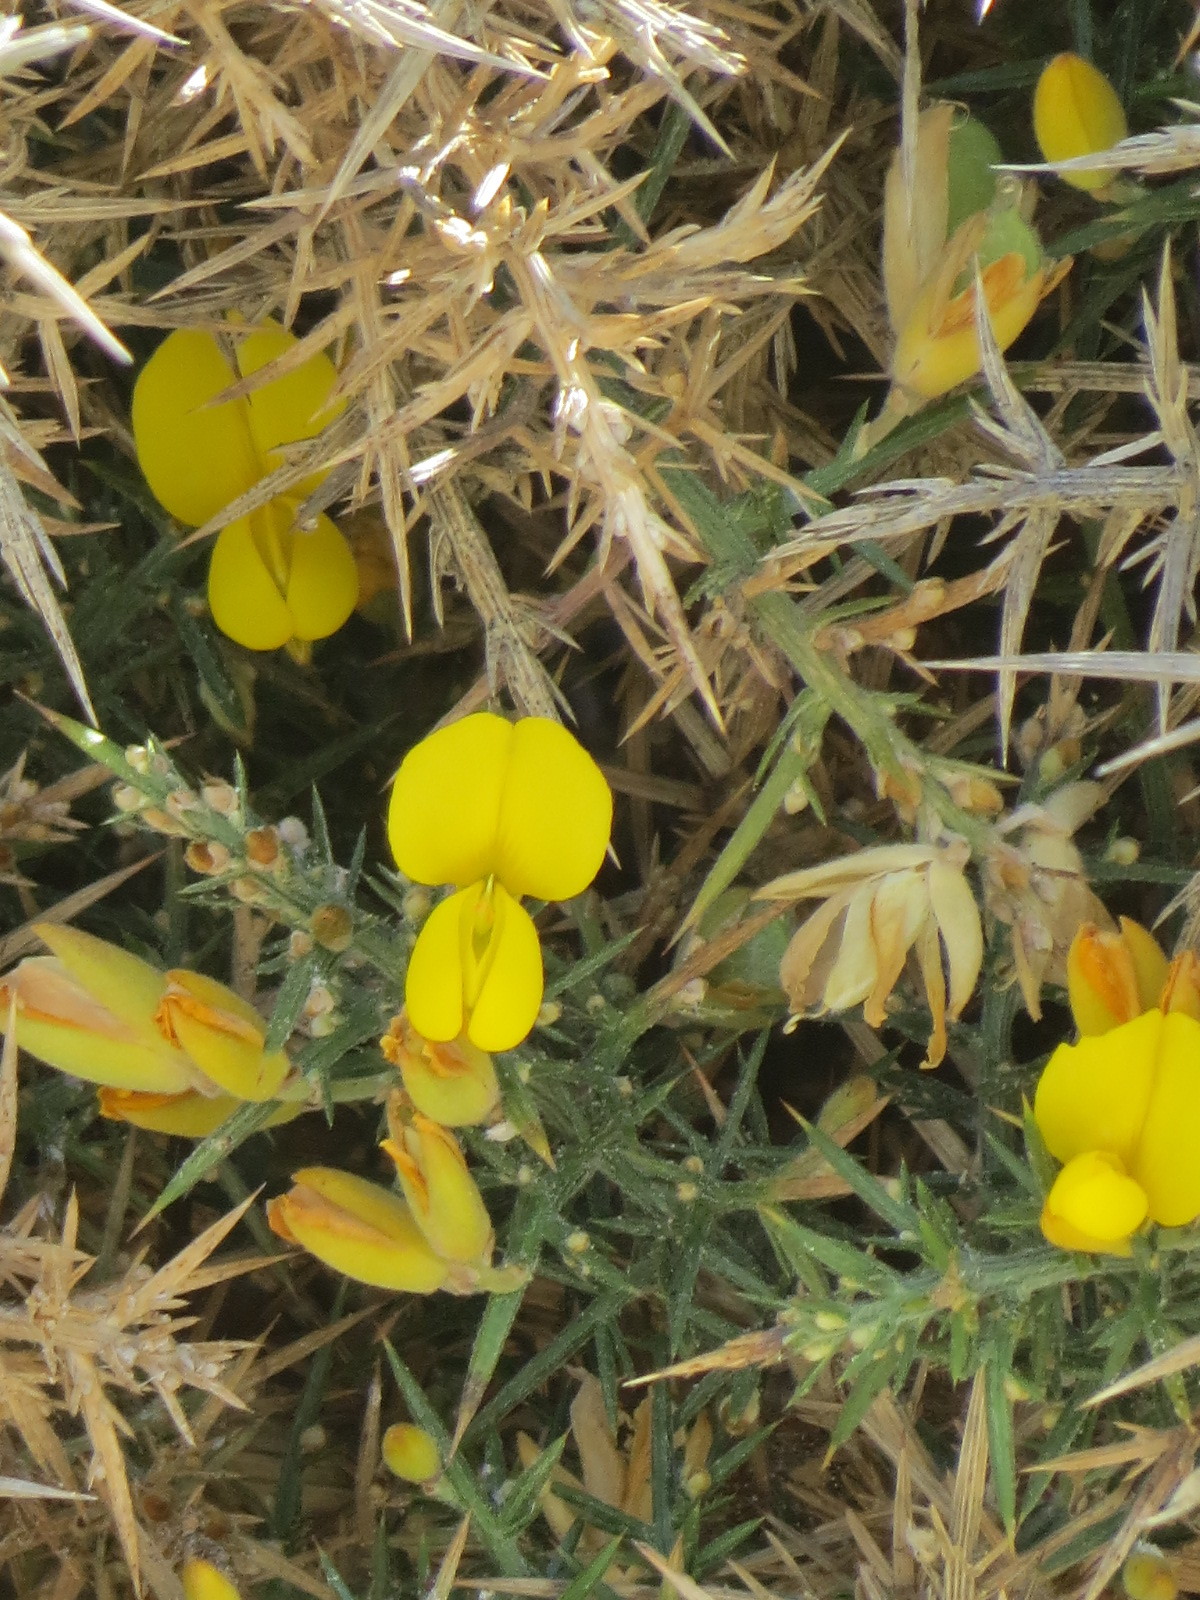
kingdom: Plantae
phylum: Tracheophyta
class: Magnoliopsida
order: Fabales
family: Fabaceae
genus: Ulex
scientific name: Ulex europaeus
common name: Common gorse
